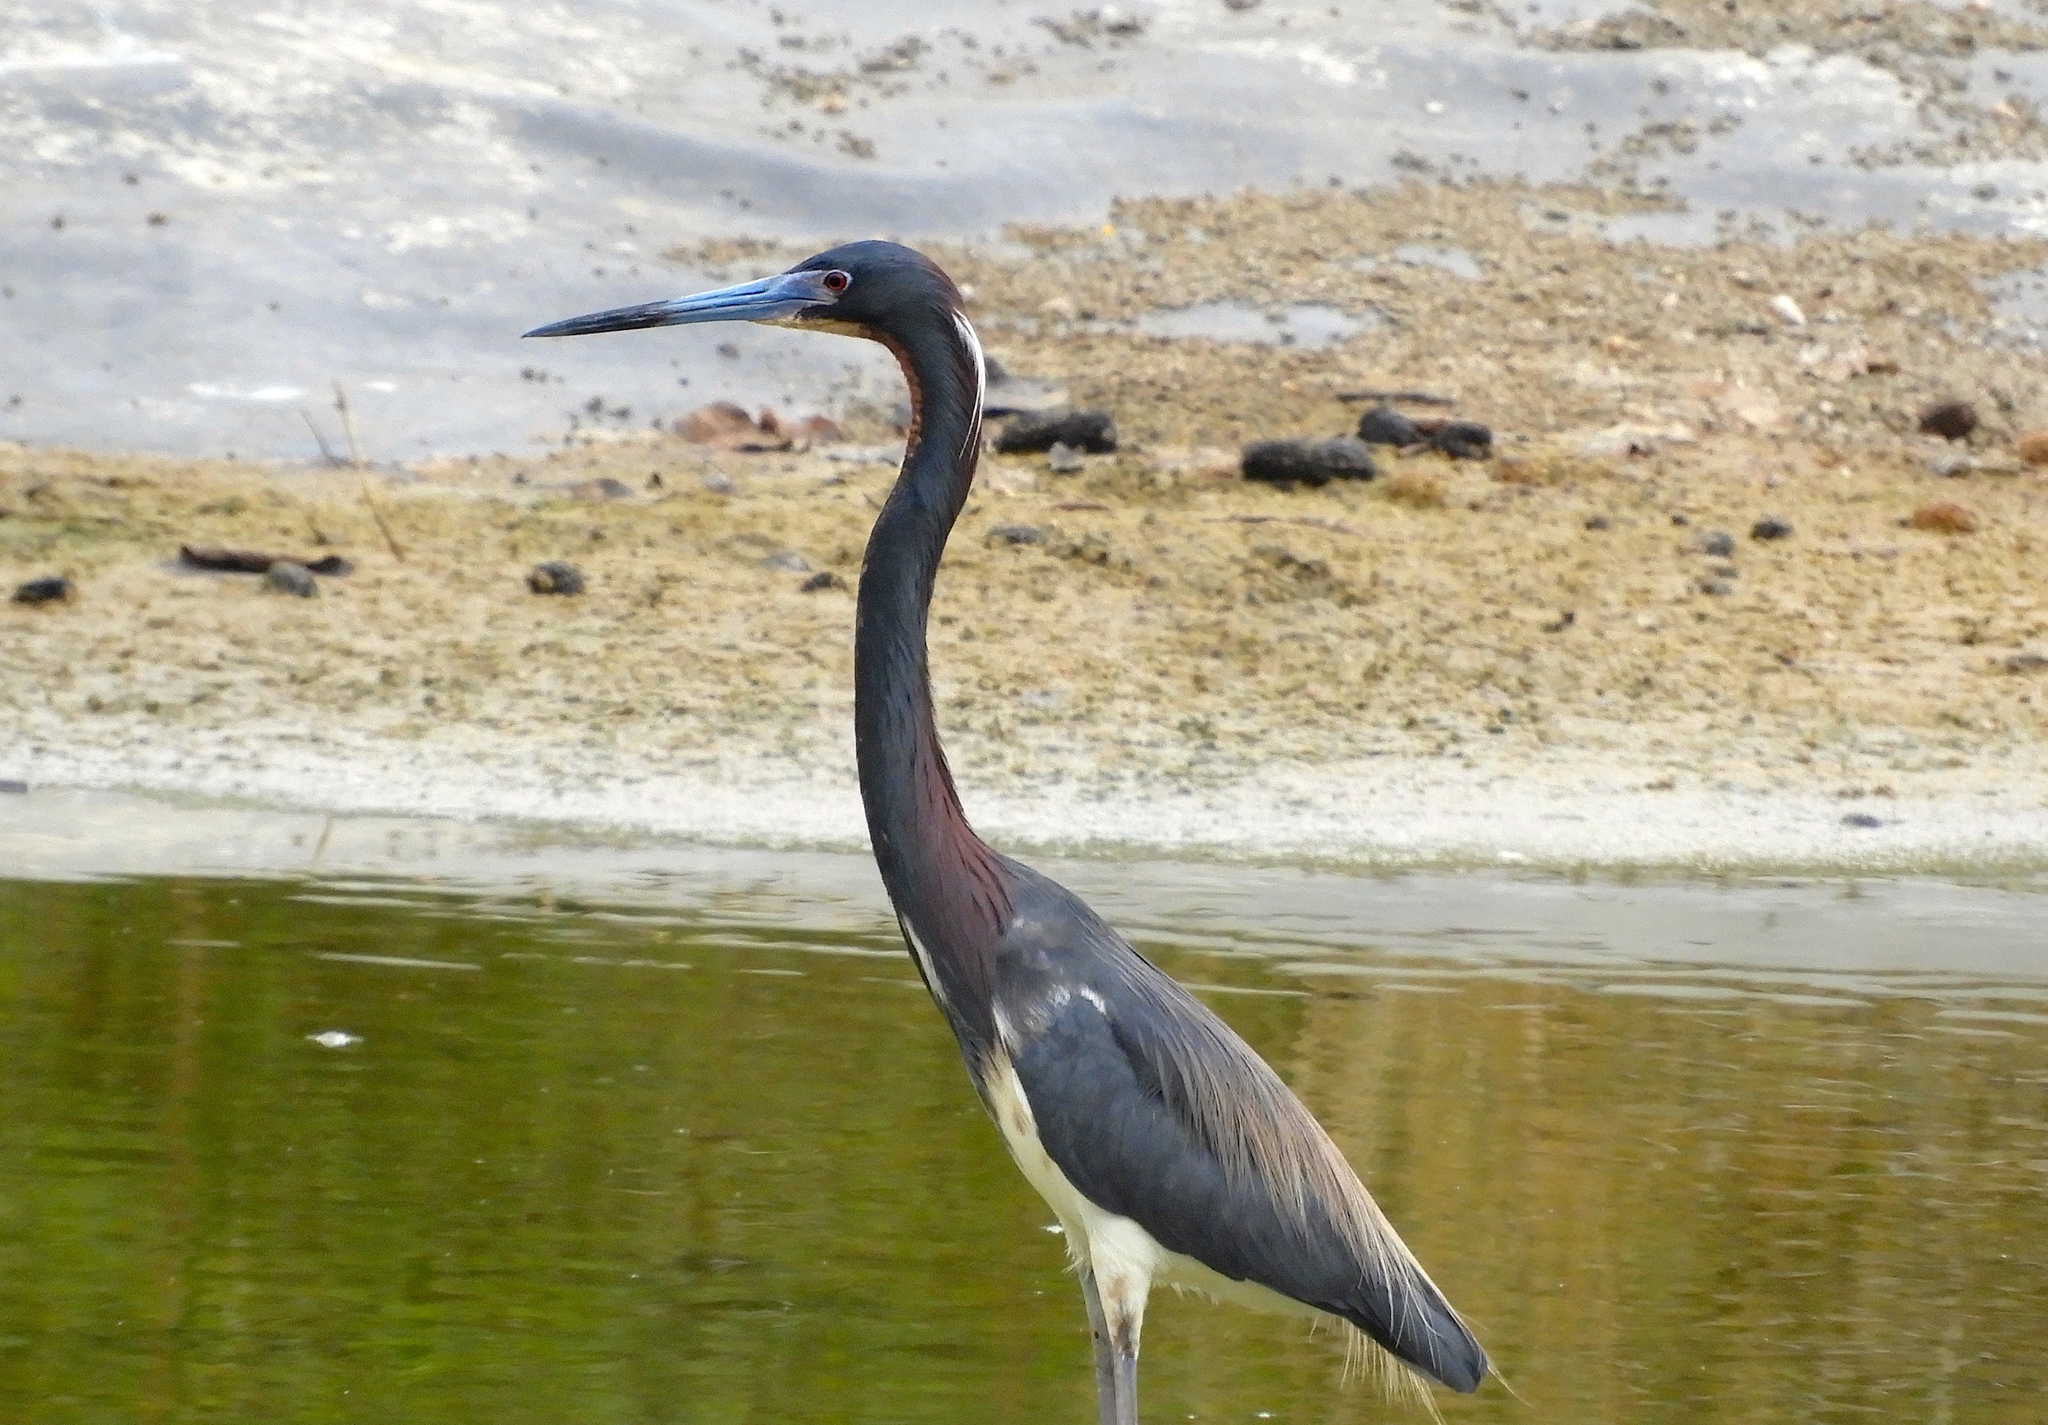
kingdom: Animalia
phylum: Chordata
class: Aves
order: Pelecaniformes
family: Ardeidae
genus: Egretta
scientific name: Egretta tricolor
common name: Tricolored heron
